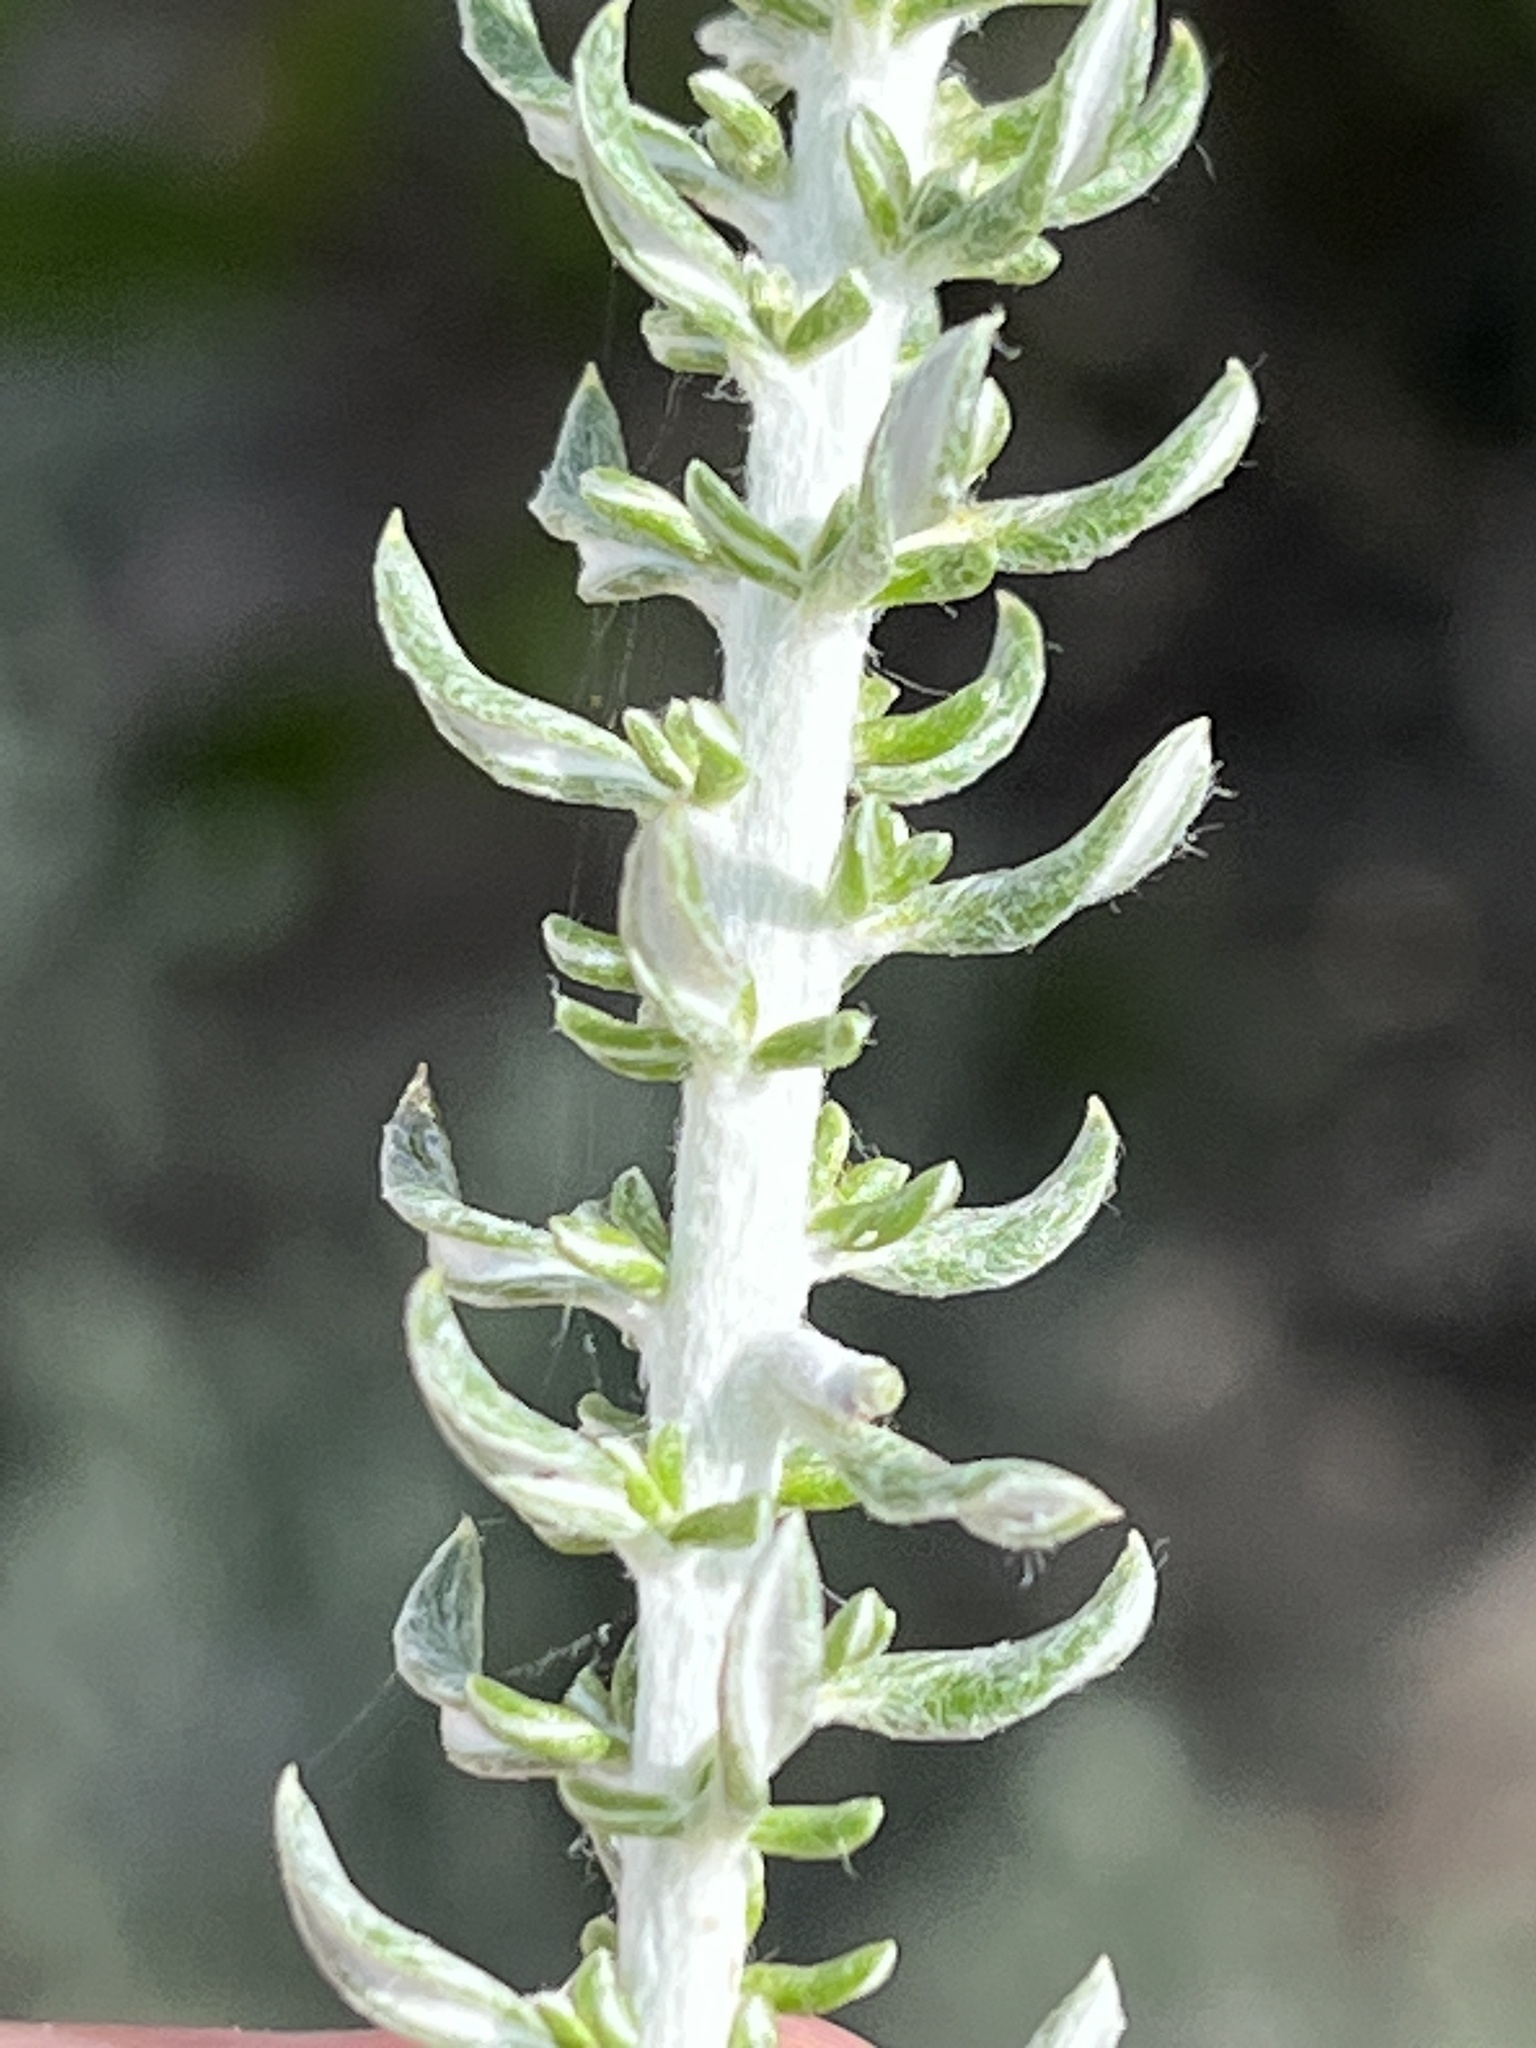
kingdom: Plantae
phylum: Tracheophyta
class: Magnoliopsida
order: Asterales
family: Asteraceae
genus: Metalasia
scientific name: Metalasia muricata
